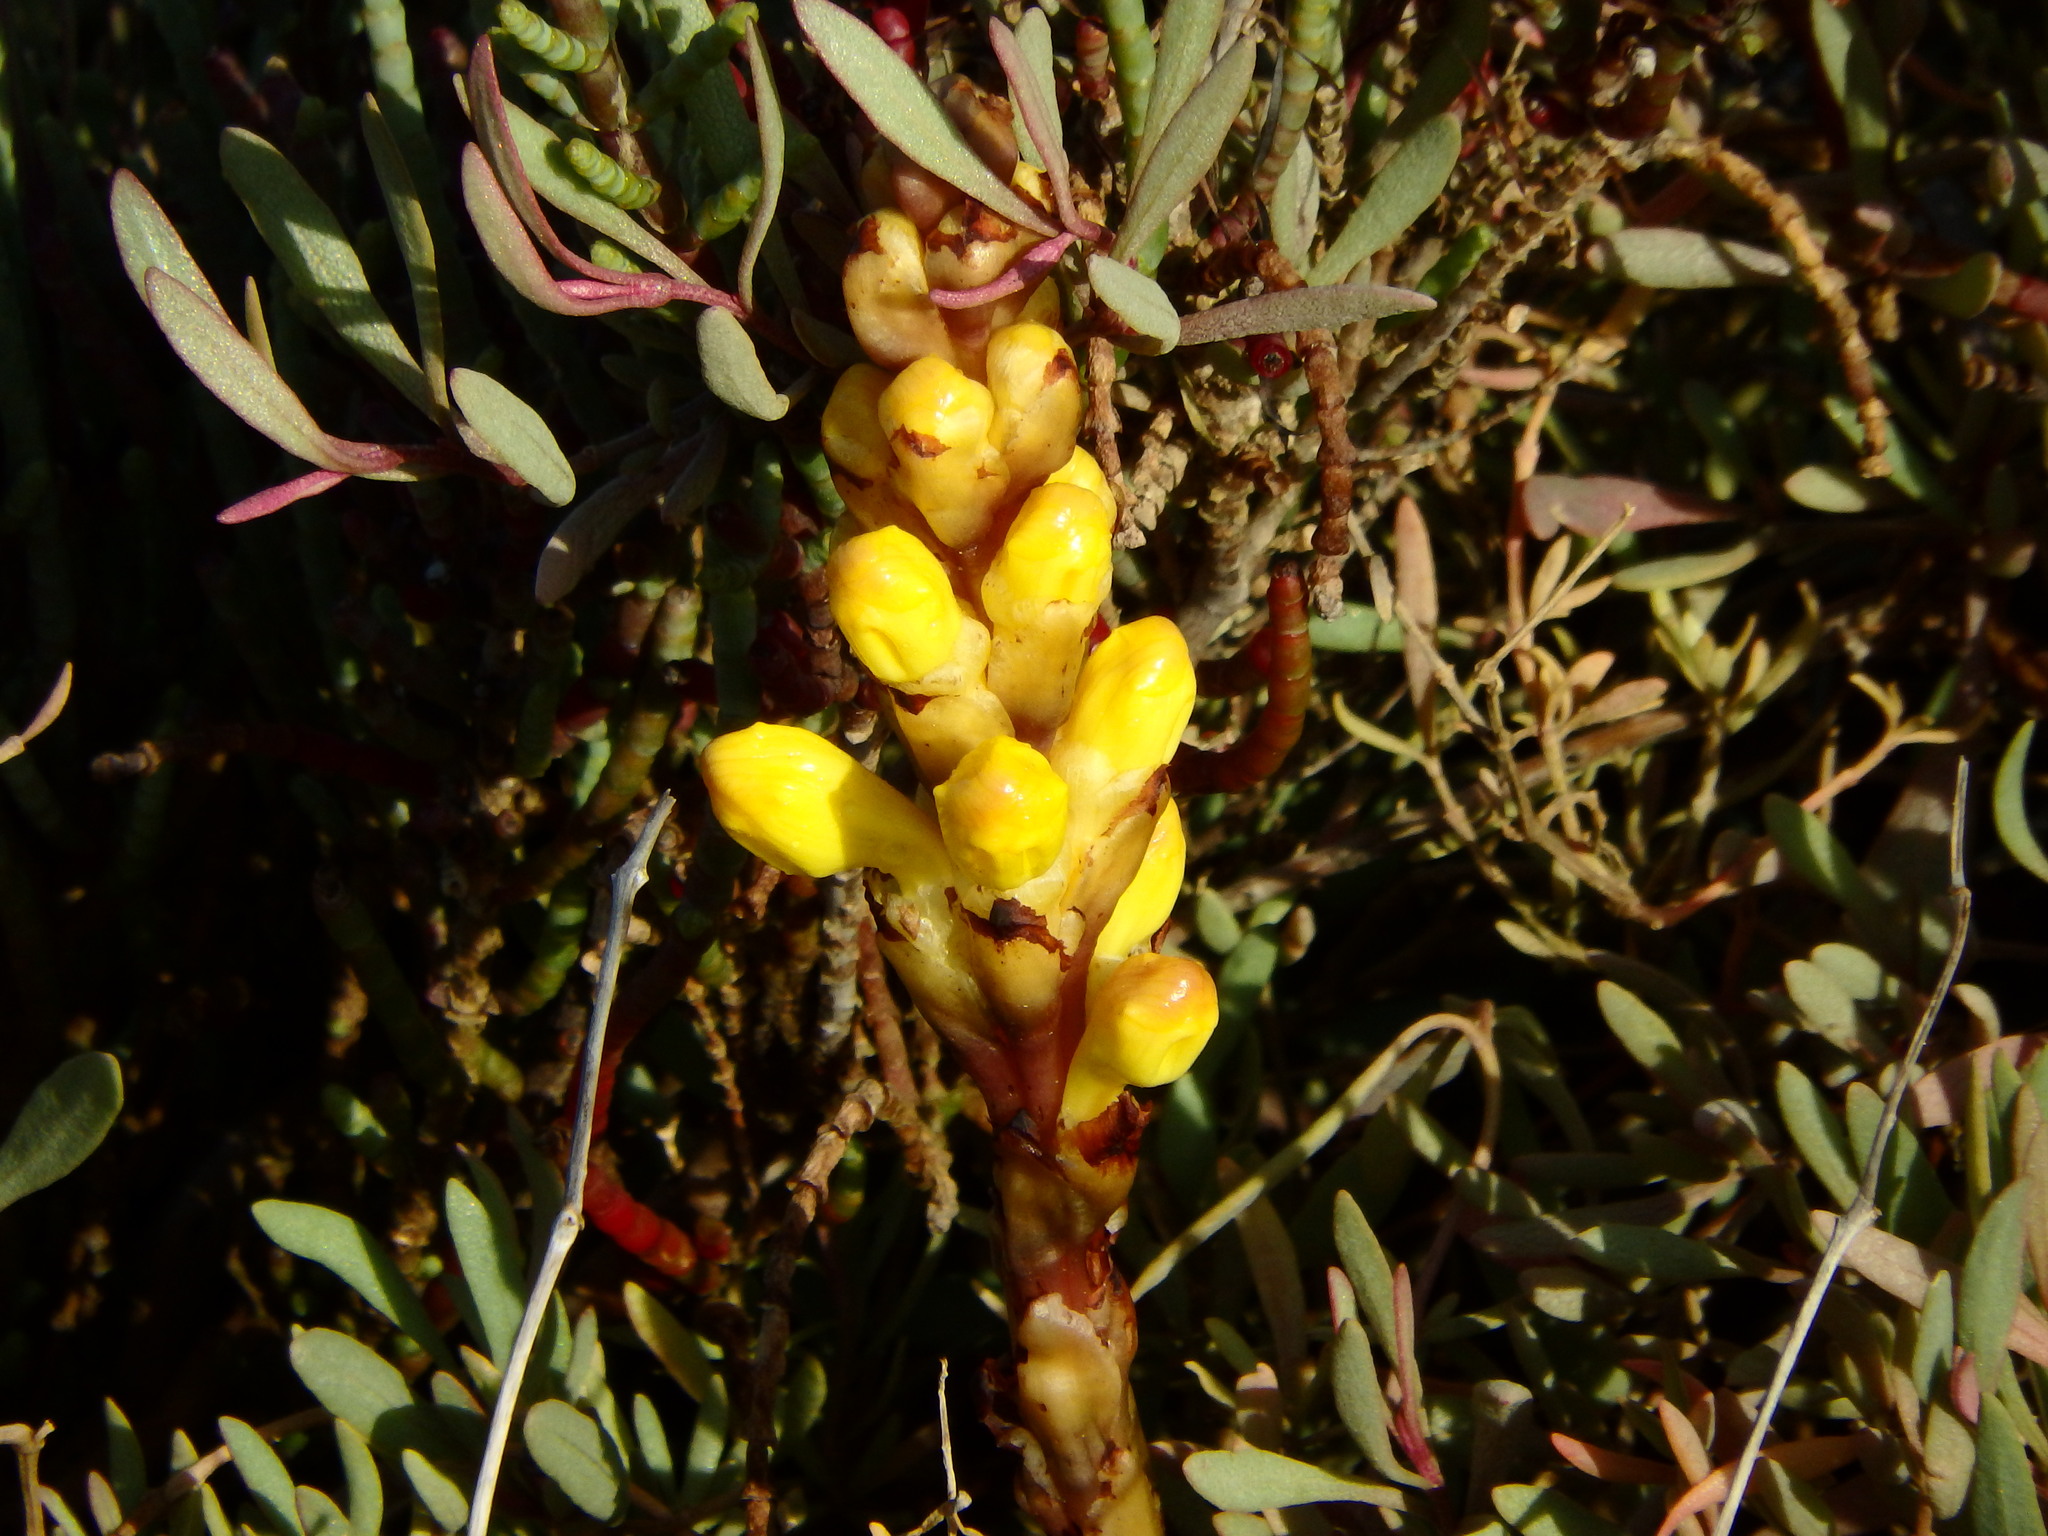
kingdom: Plantae
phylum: Tracheophyta
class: Magnoliopsida
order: Lamiales
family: Orobanchaceae
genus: Cistanche
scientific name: Cistanche phelypaea
